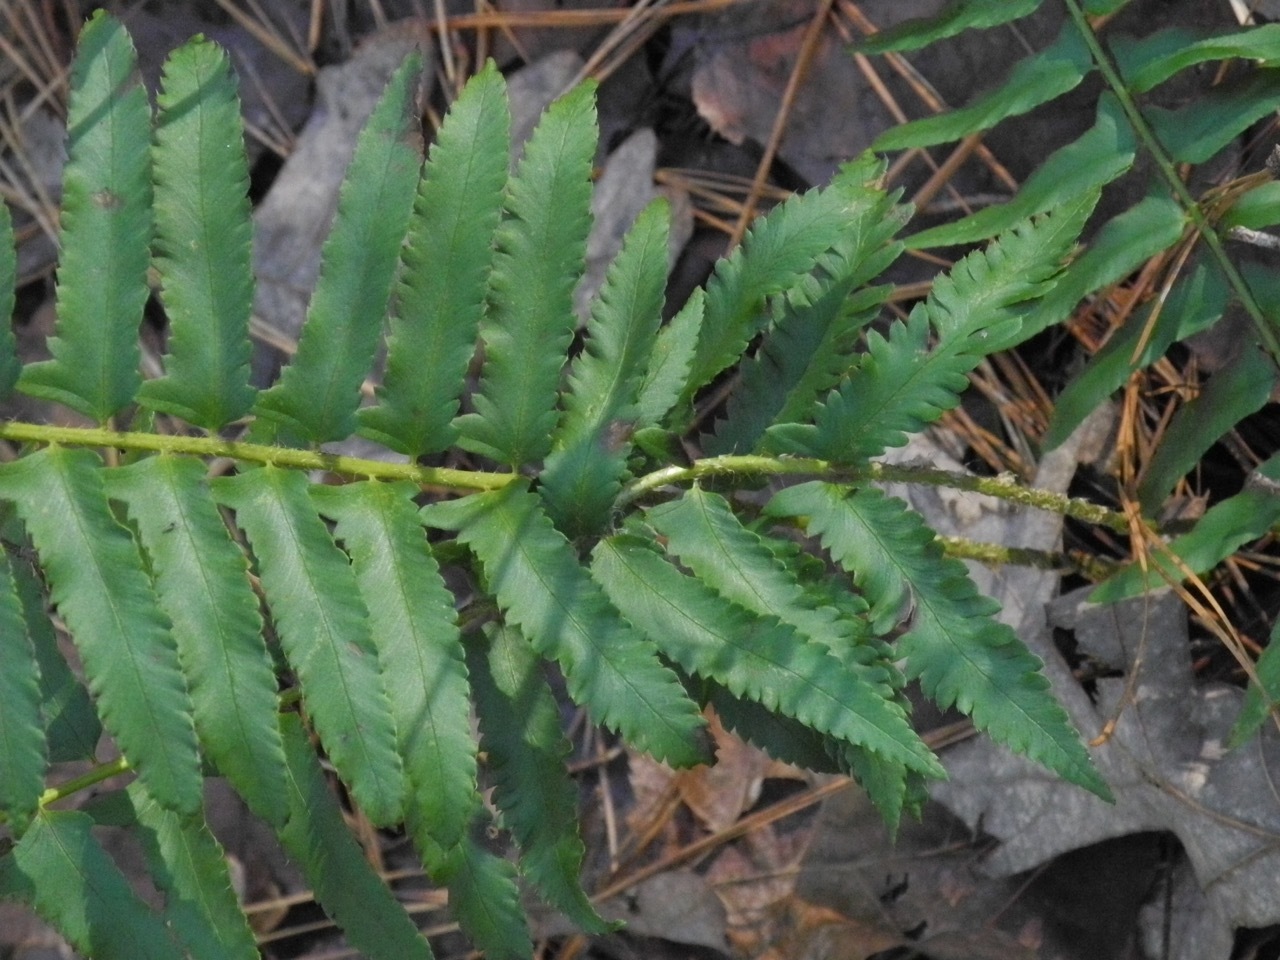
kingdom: Plantae
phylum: Tracheophyta
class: Polypodiopsida
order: Polypodiales
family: Dryopteridaceae
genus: Polystichum
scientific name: Polystichum acrostichoides
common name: Christmas fern
